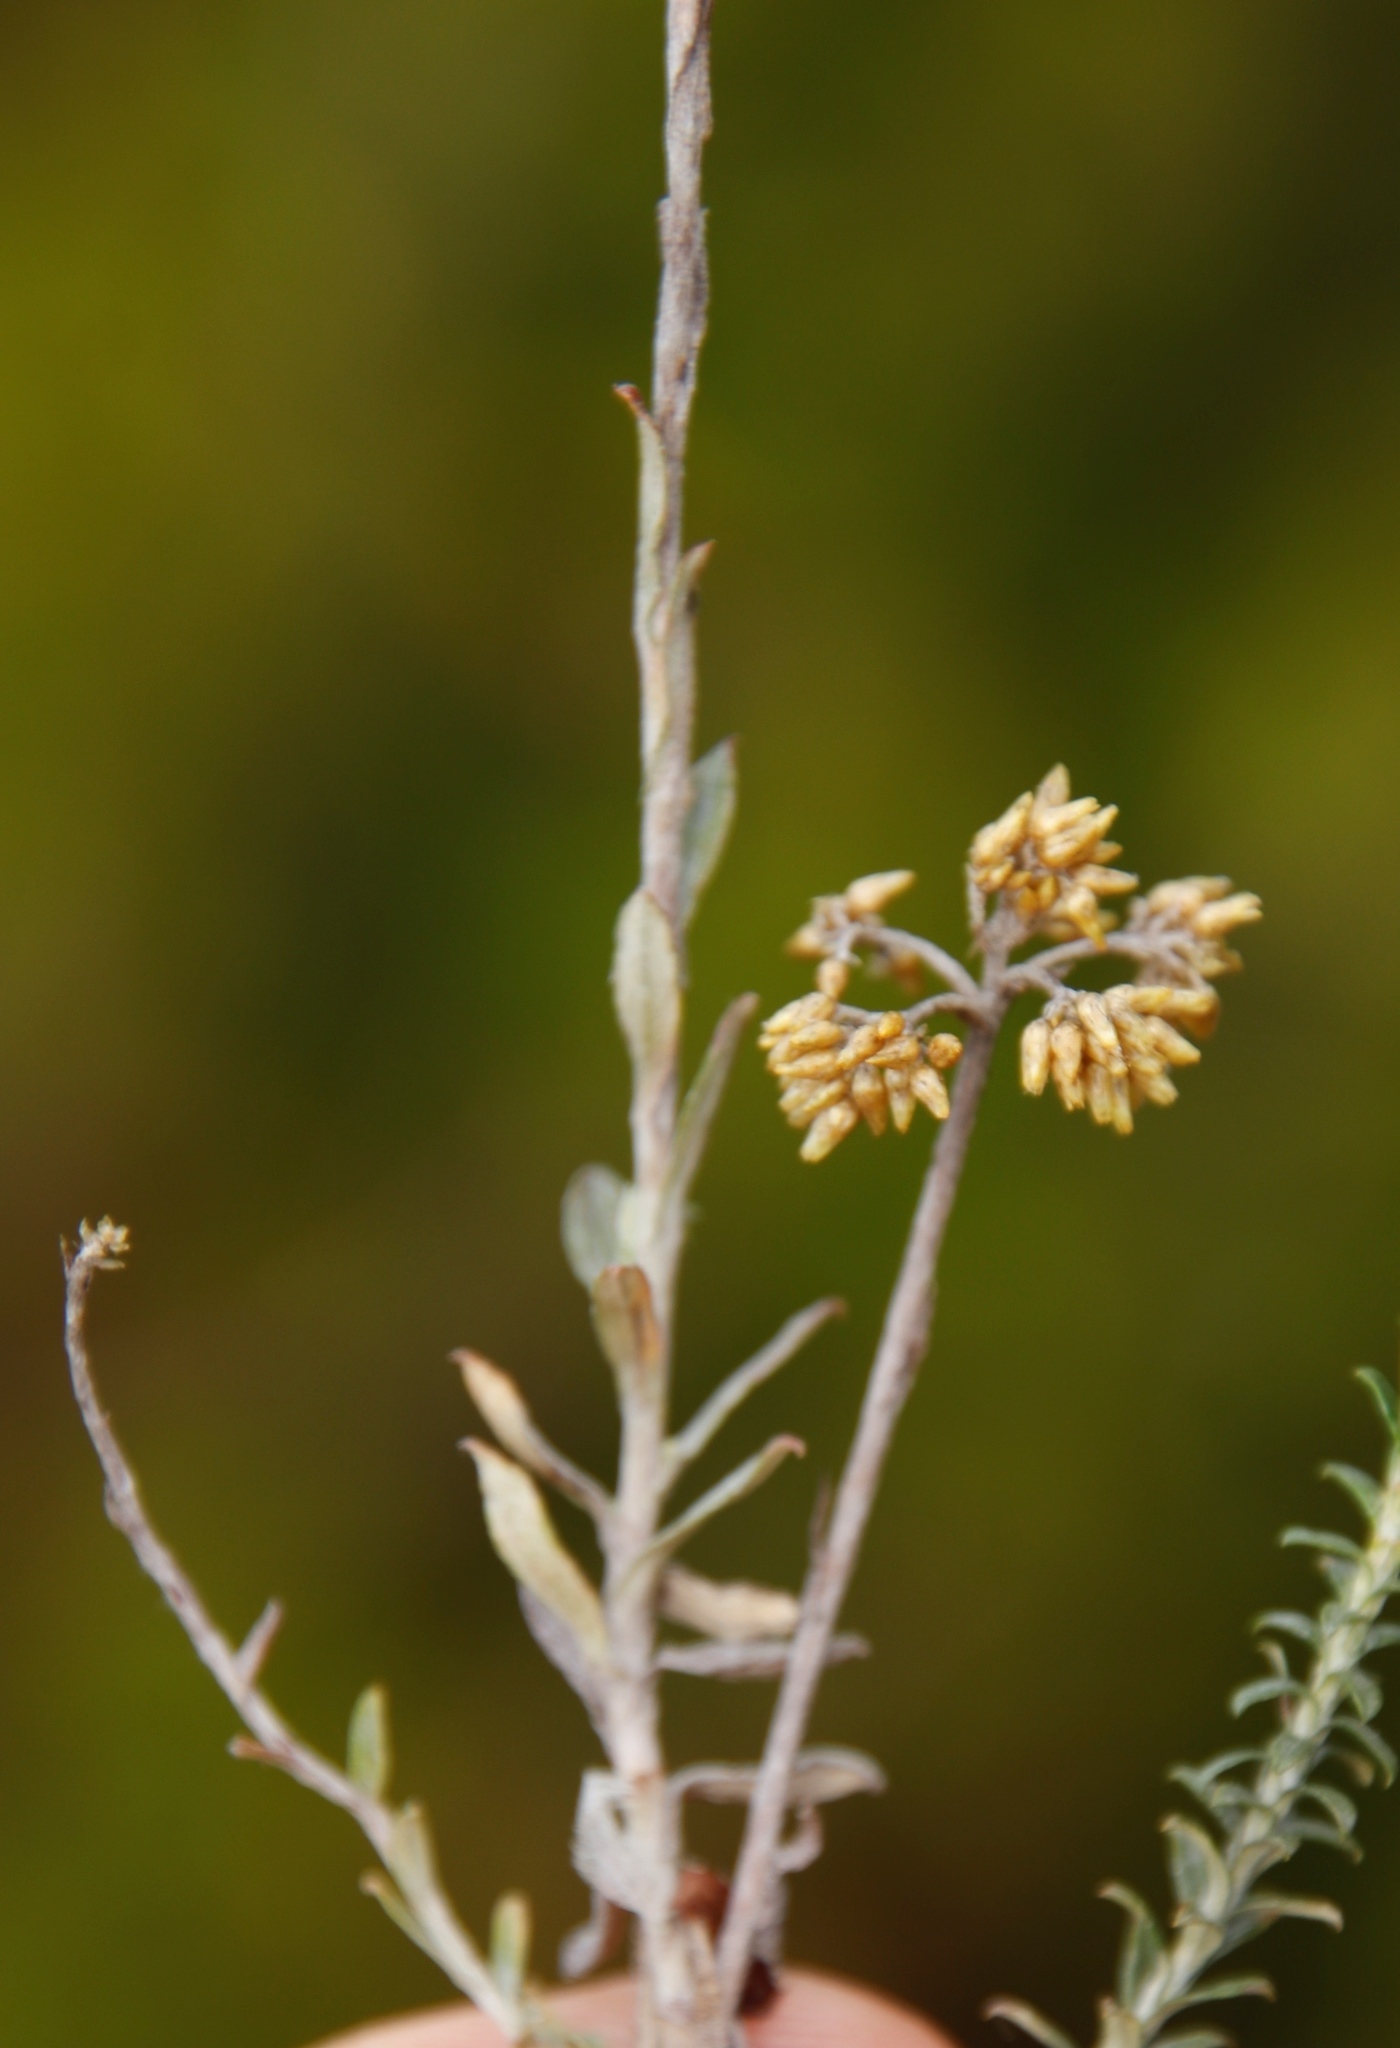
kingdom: Plantae
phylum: Tracheophyta
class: Magnoliopsida
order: Asterales
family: Asteraceae
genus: Helichrysum
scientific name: Helichrysum teretifolium
